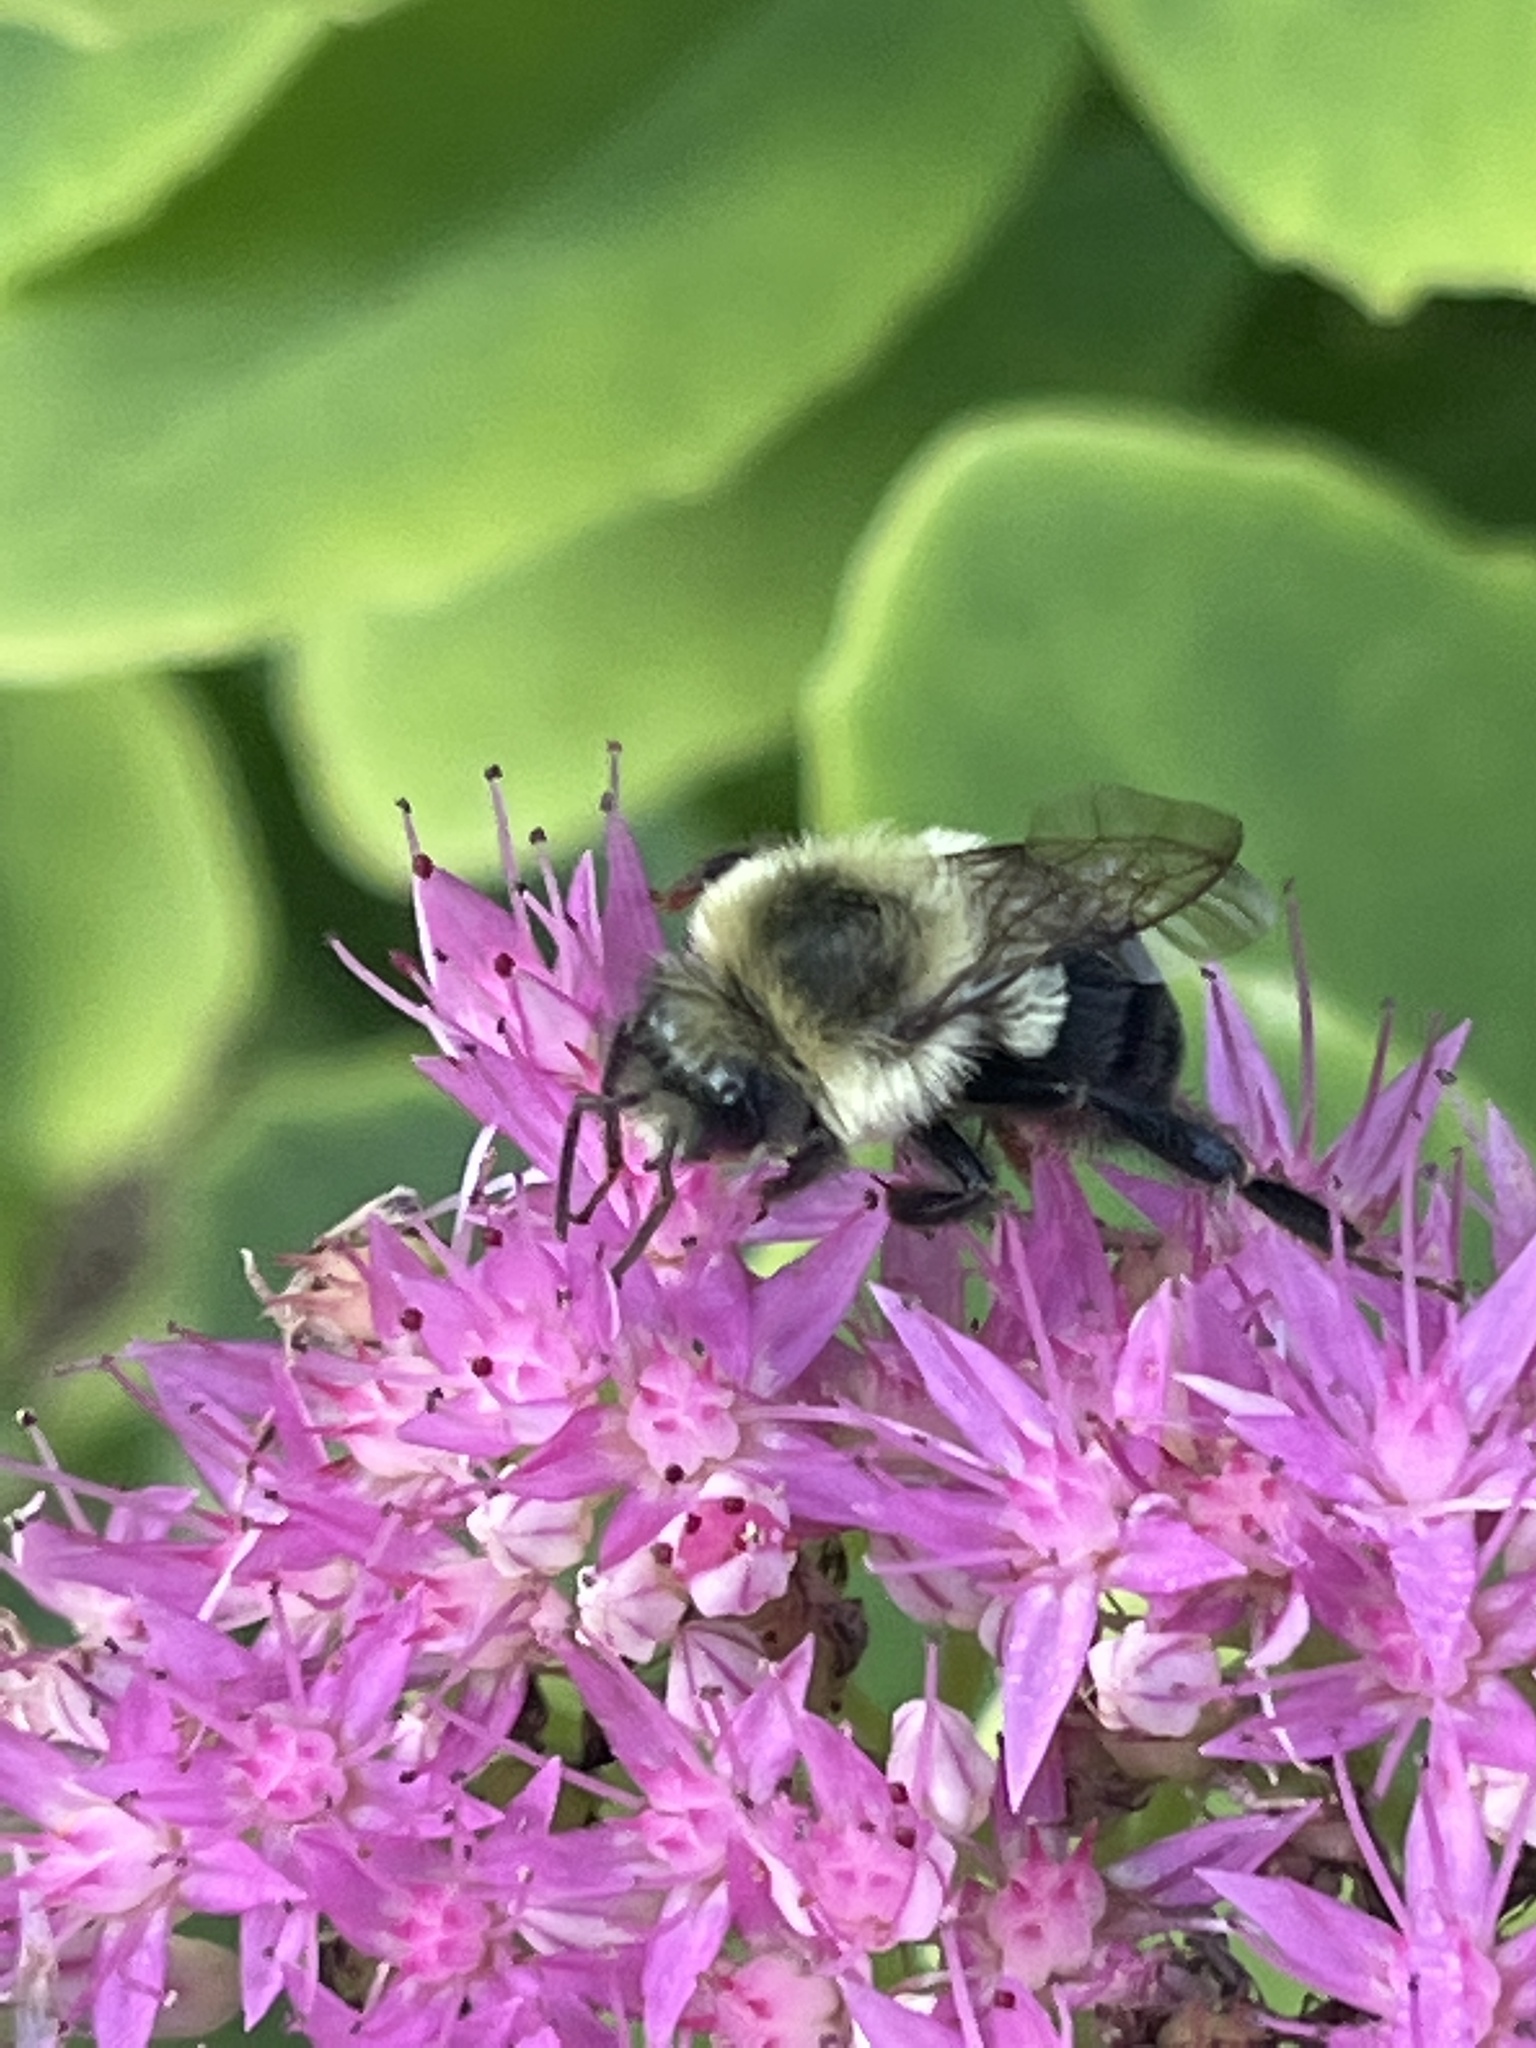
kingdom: Animalia
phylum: Arthropoda
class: Insecta
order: Hymenoptera
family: Apidae
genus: Bombus
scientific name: Bombus impatiens
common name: Common eastern bumble bee
